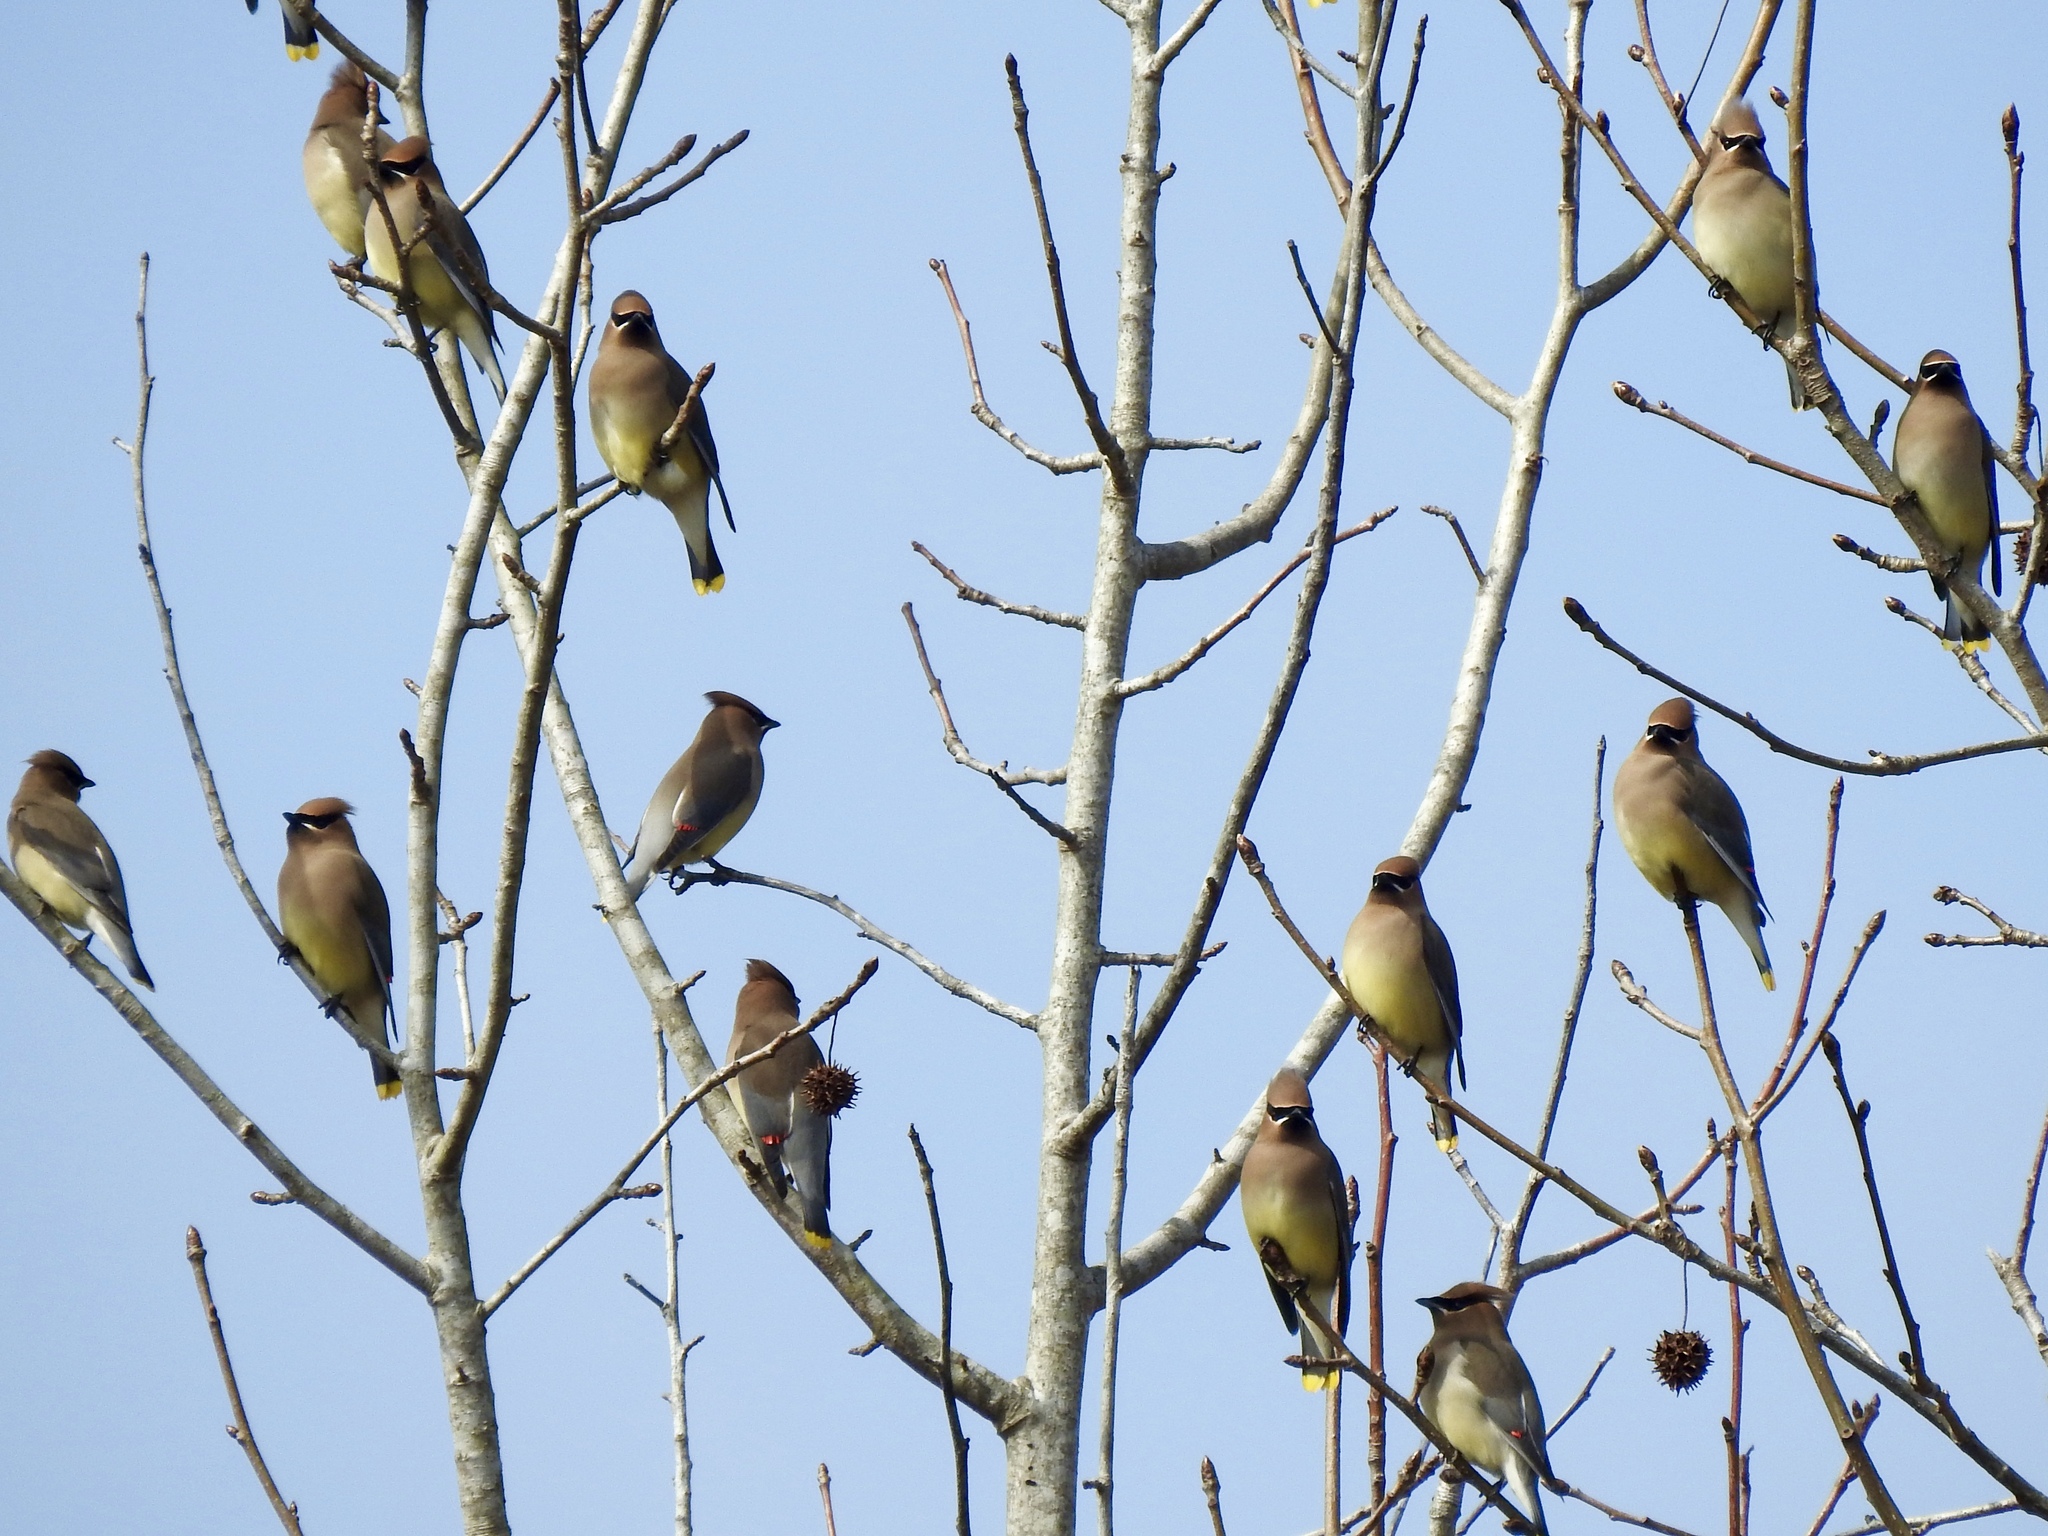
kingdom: Animalia
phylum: Chordata
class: Aves
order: Passeriformes
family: Bombycillidae
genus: Bombycilla
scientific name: Bombycilla cedrorum
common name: Cedar waxwing
